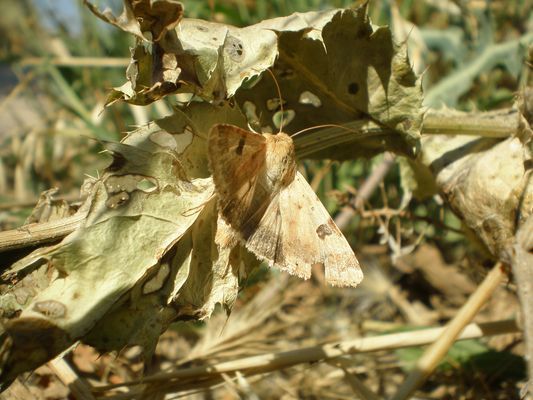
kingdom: Animalia
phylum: Arthropoda
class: Insecta
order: Lepidoptera
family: Noctuidae
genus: Heliothis
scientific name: Heliothis peltigera
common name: Bordered straw
